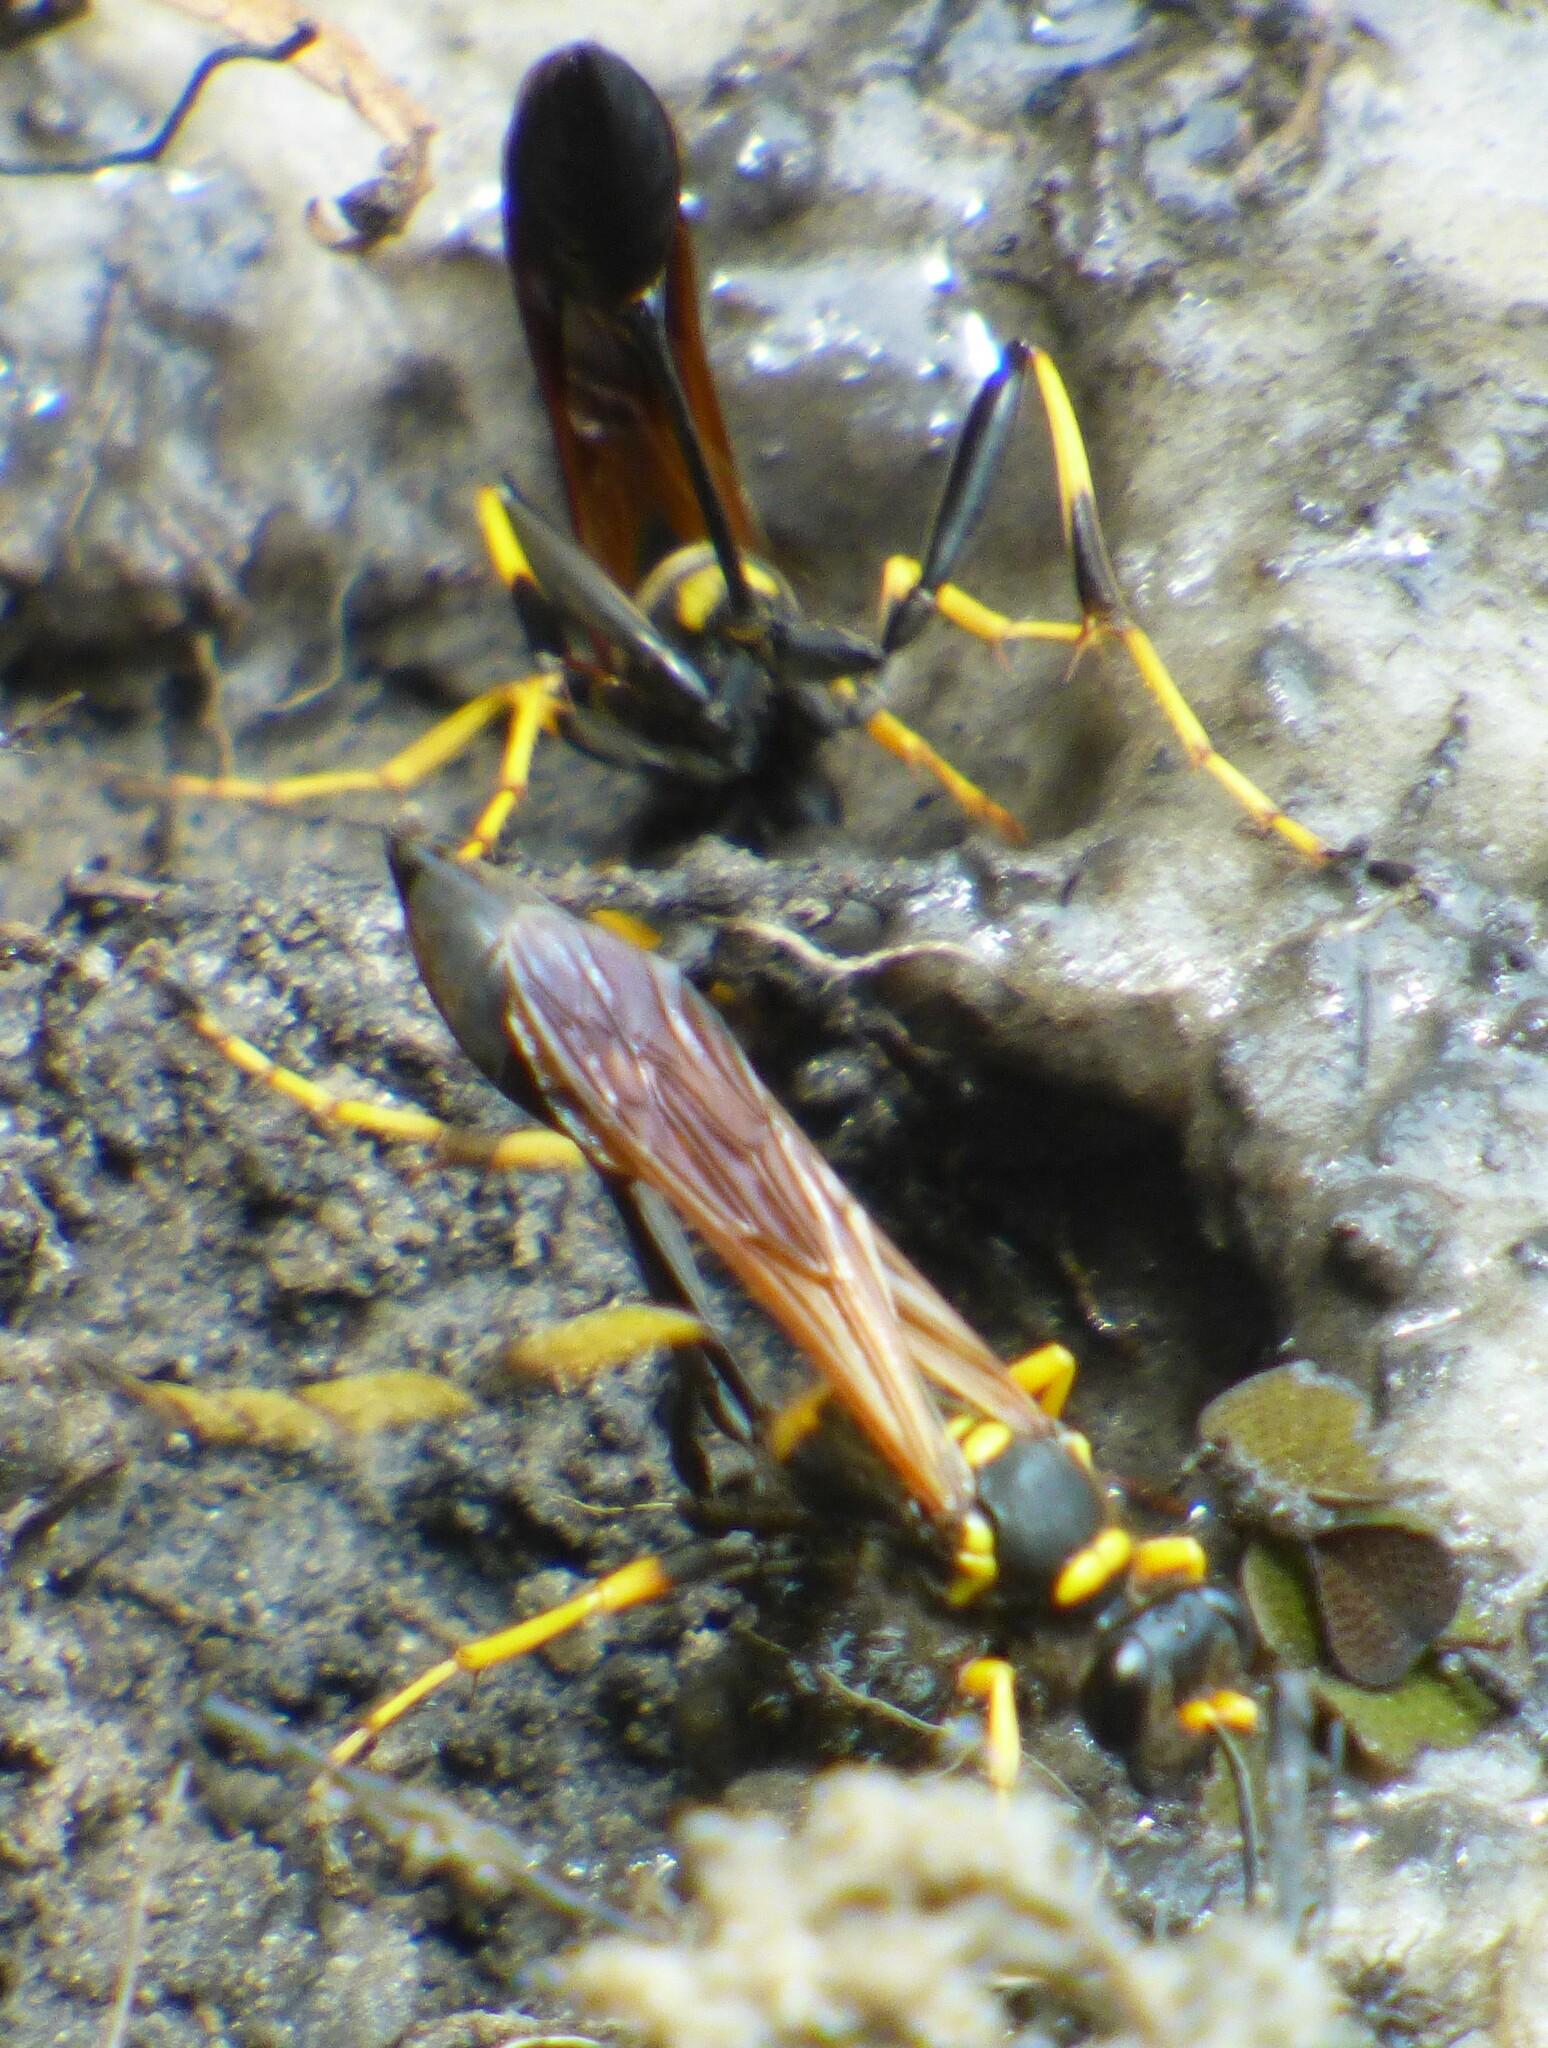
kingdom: Animalia
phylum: Arthropoda
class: Insecta
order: Hymenoptera
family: Sphecidae
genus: Sceliphron
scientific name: Sceliphron caementarium
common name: Mud dauber
